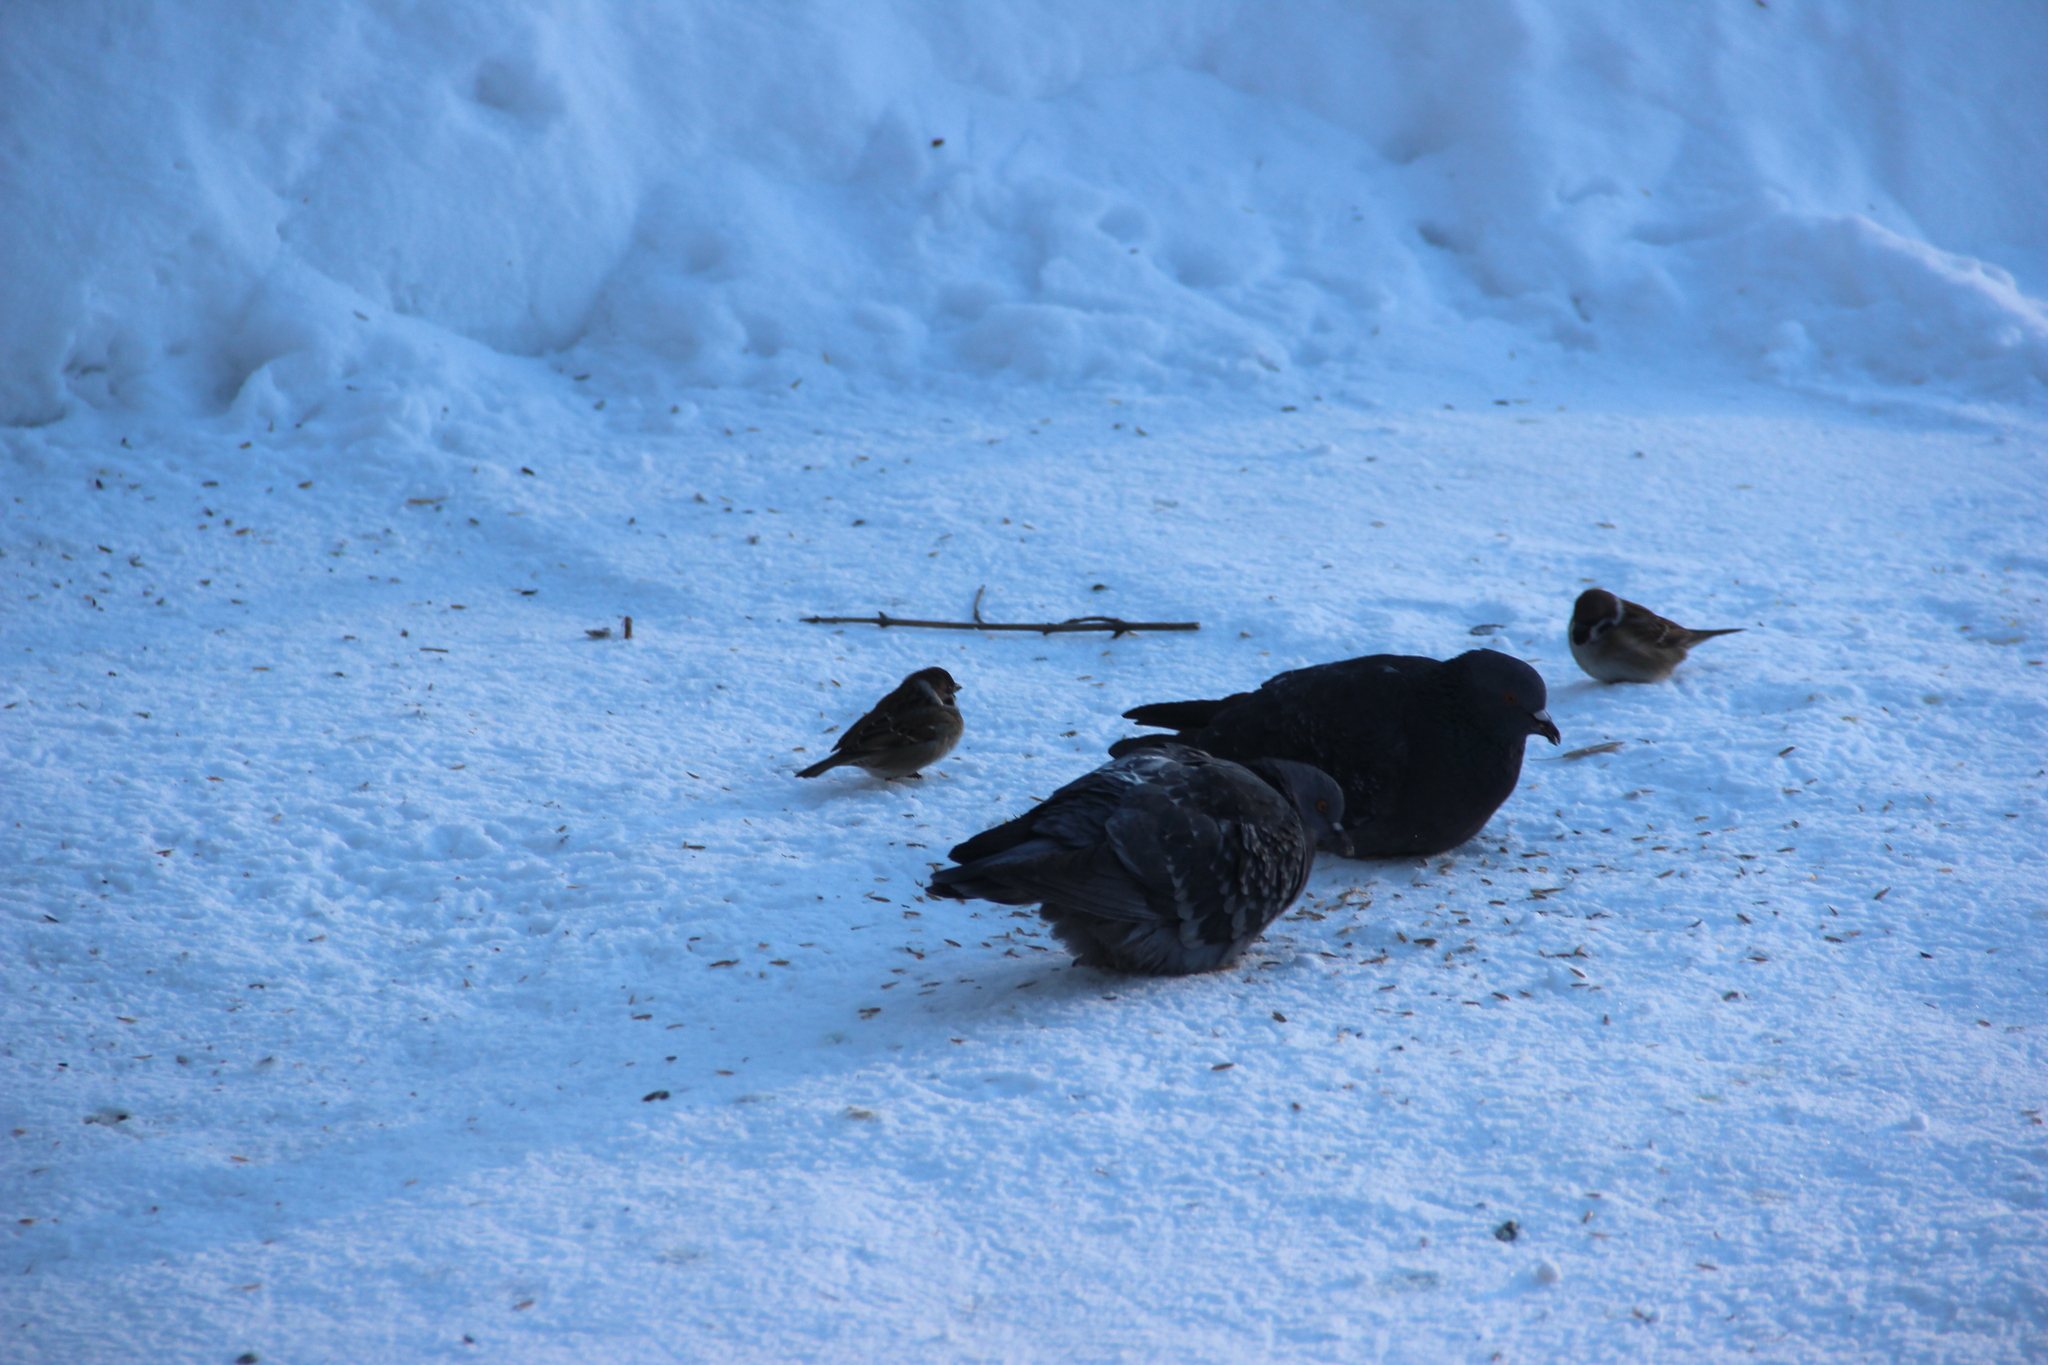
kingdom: Animalia
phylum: Chordata
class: Aves
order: Columbiformes
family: Columbidae
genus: Columba
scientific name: Columba livia
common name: Rock pigeon
